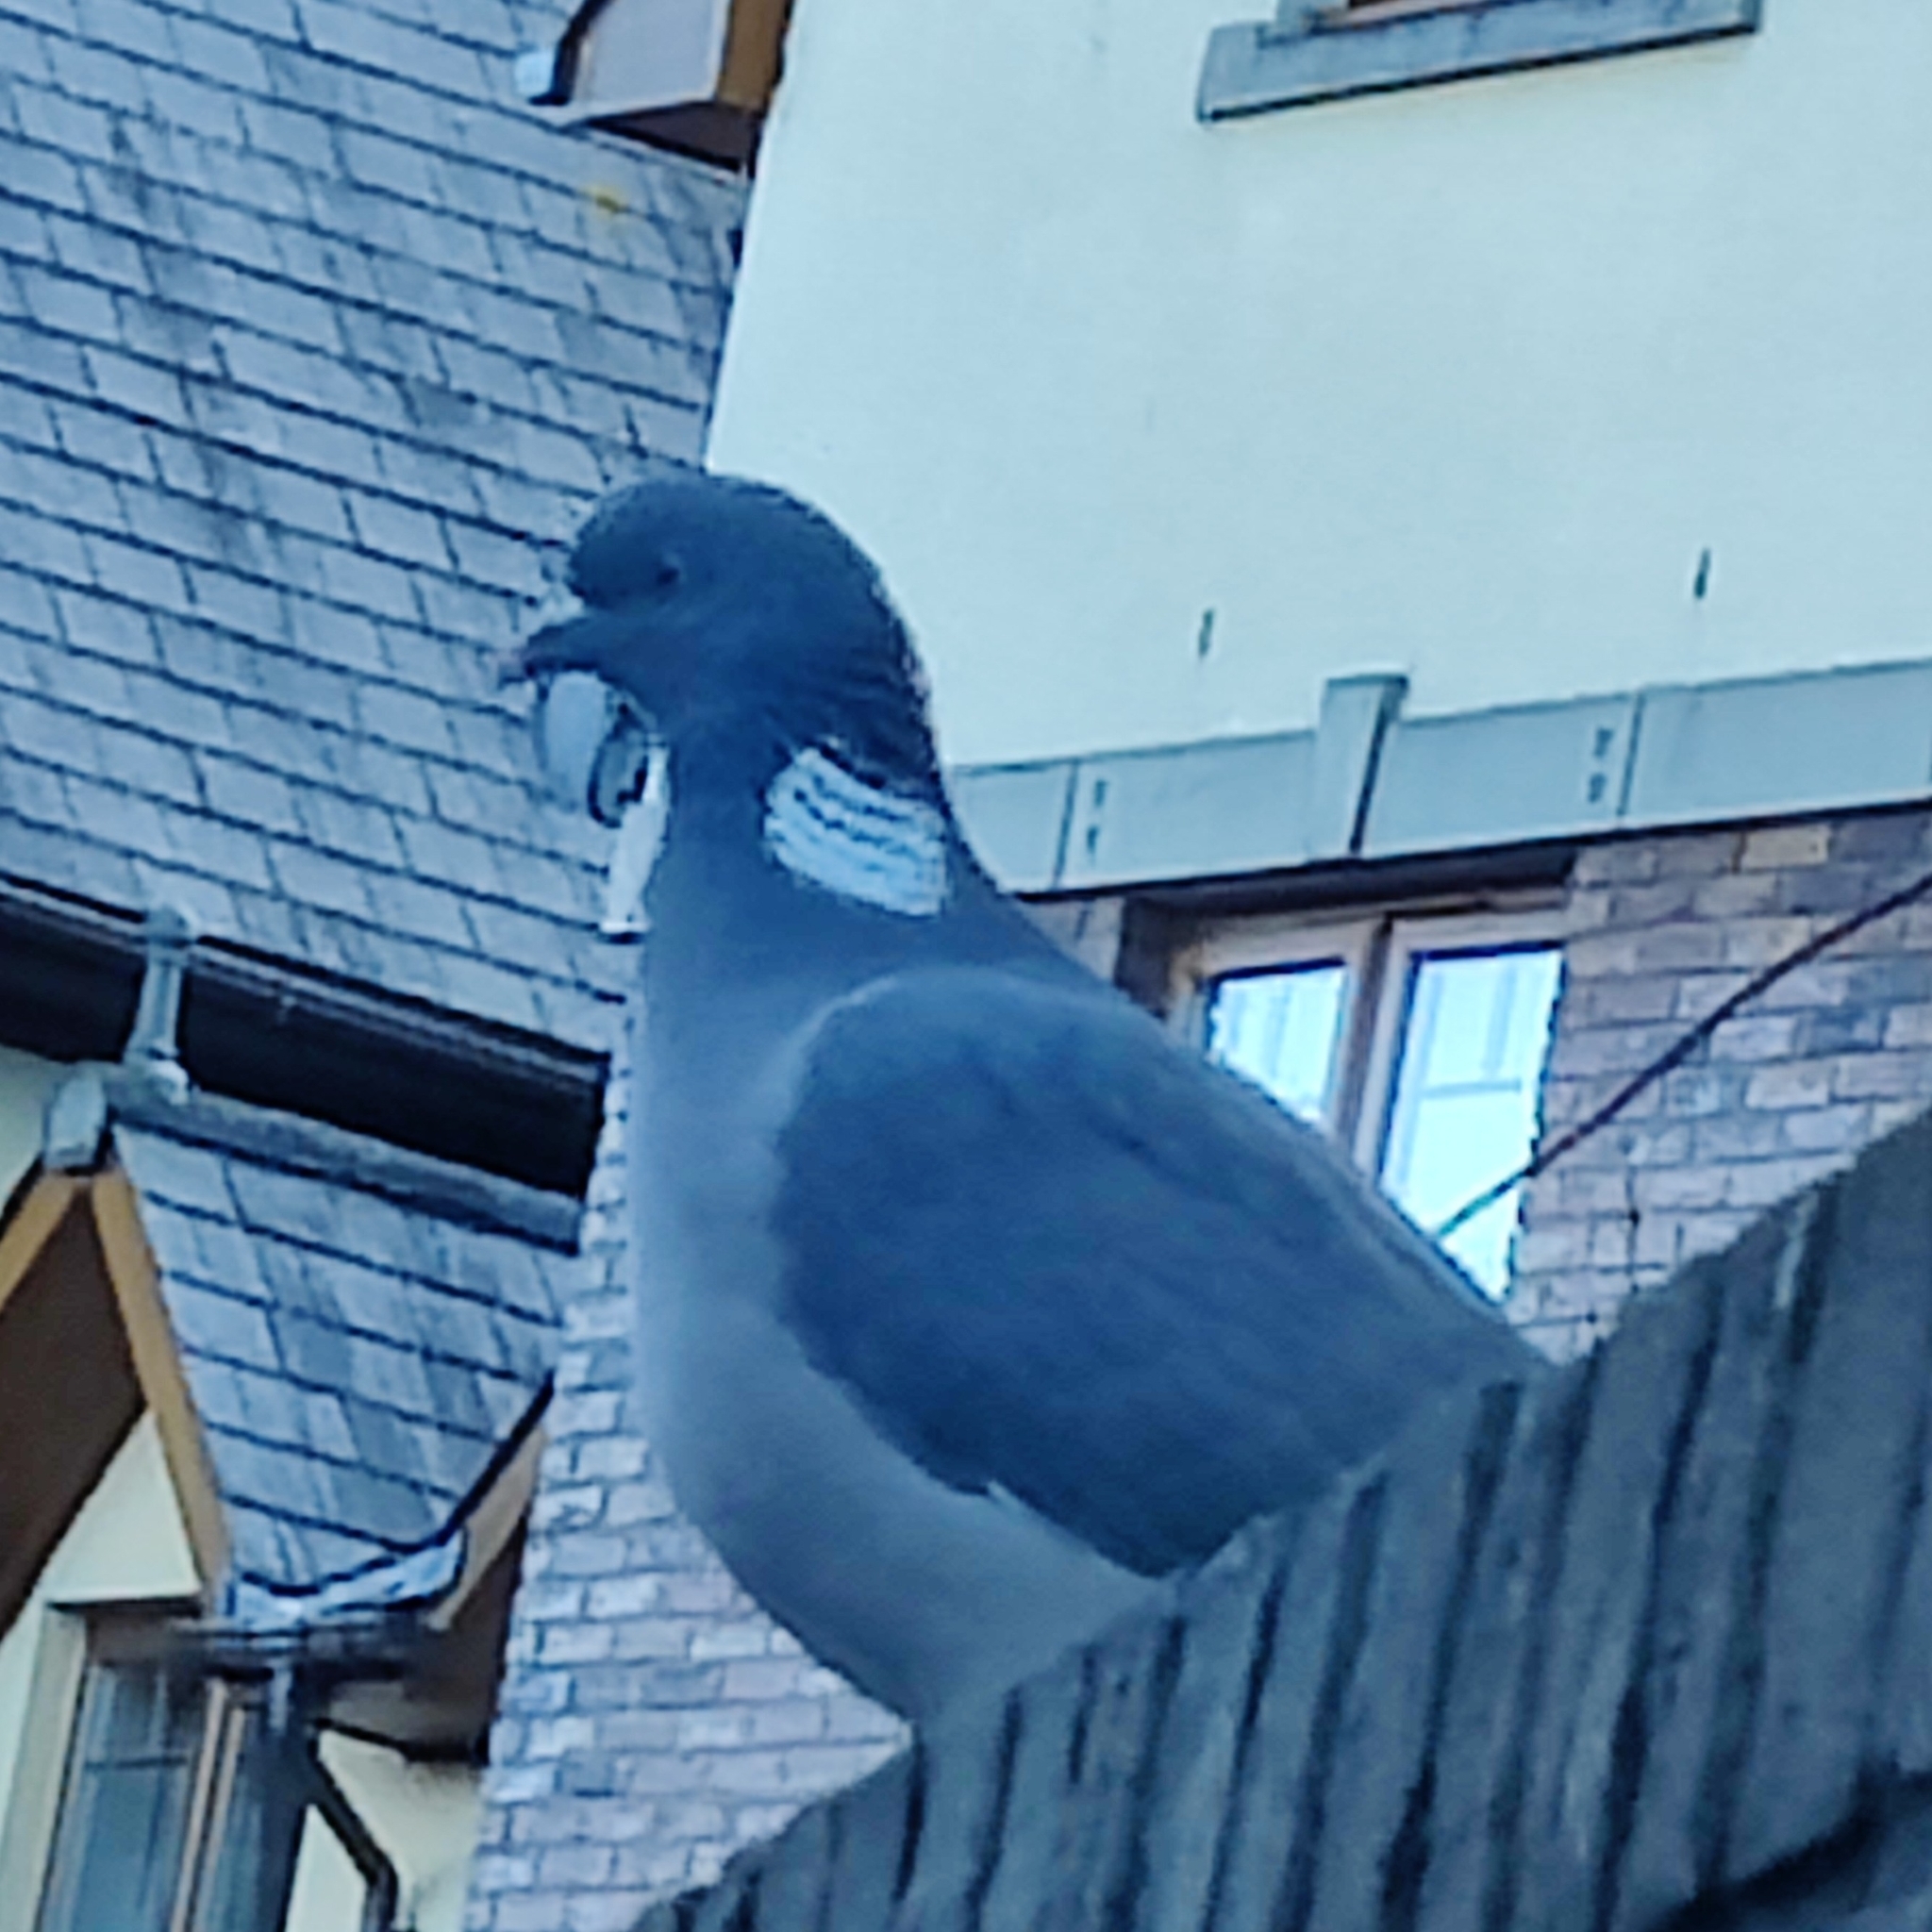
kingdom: Animalia
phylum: Chordata
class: Aves
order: Columbiformes
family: Columbidae
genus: Columba
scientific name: Columba palumbus
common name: Common wood pigeon
